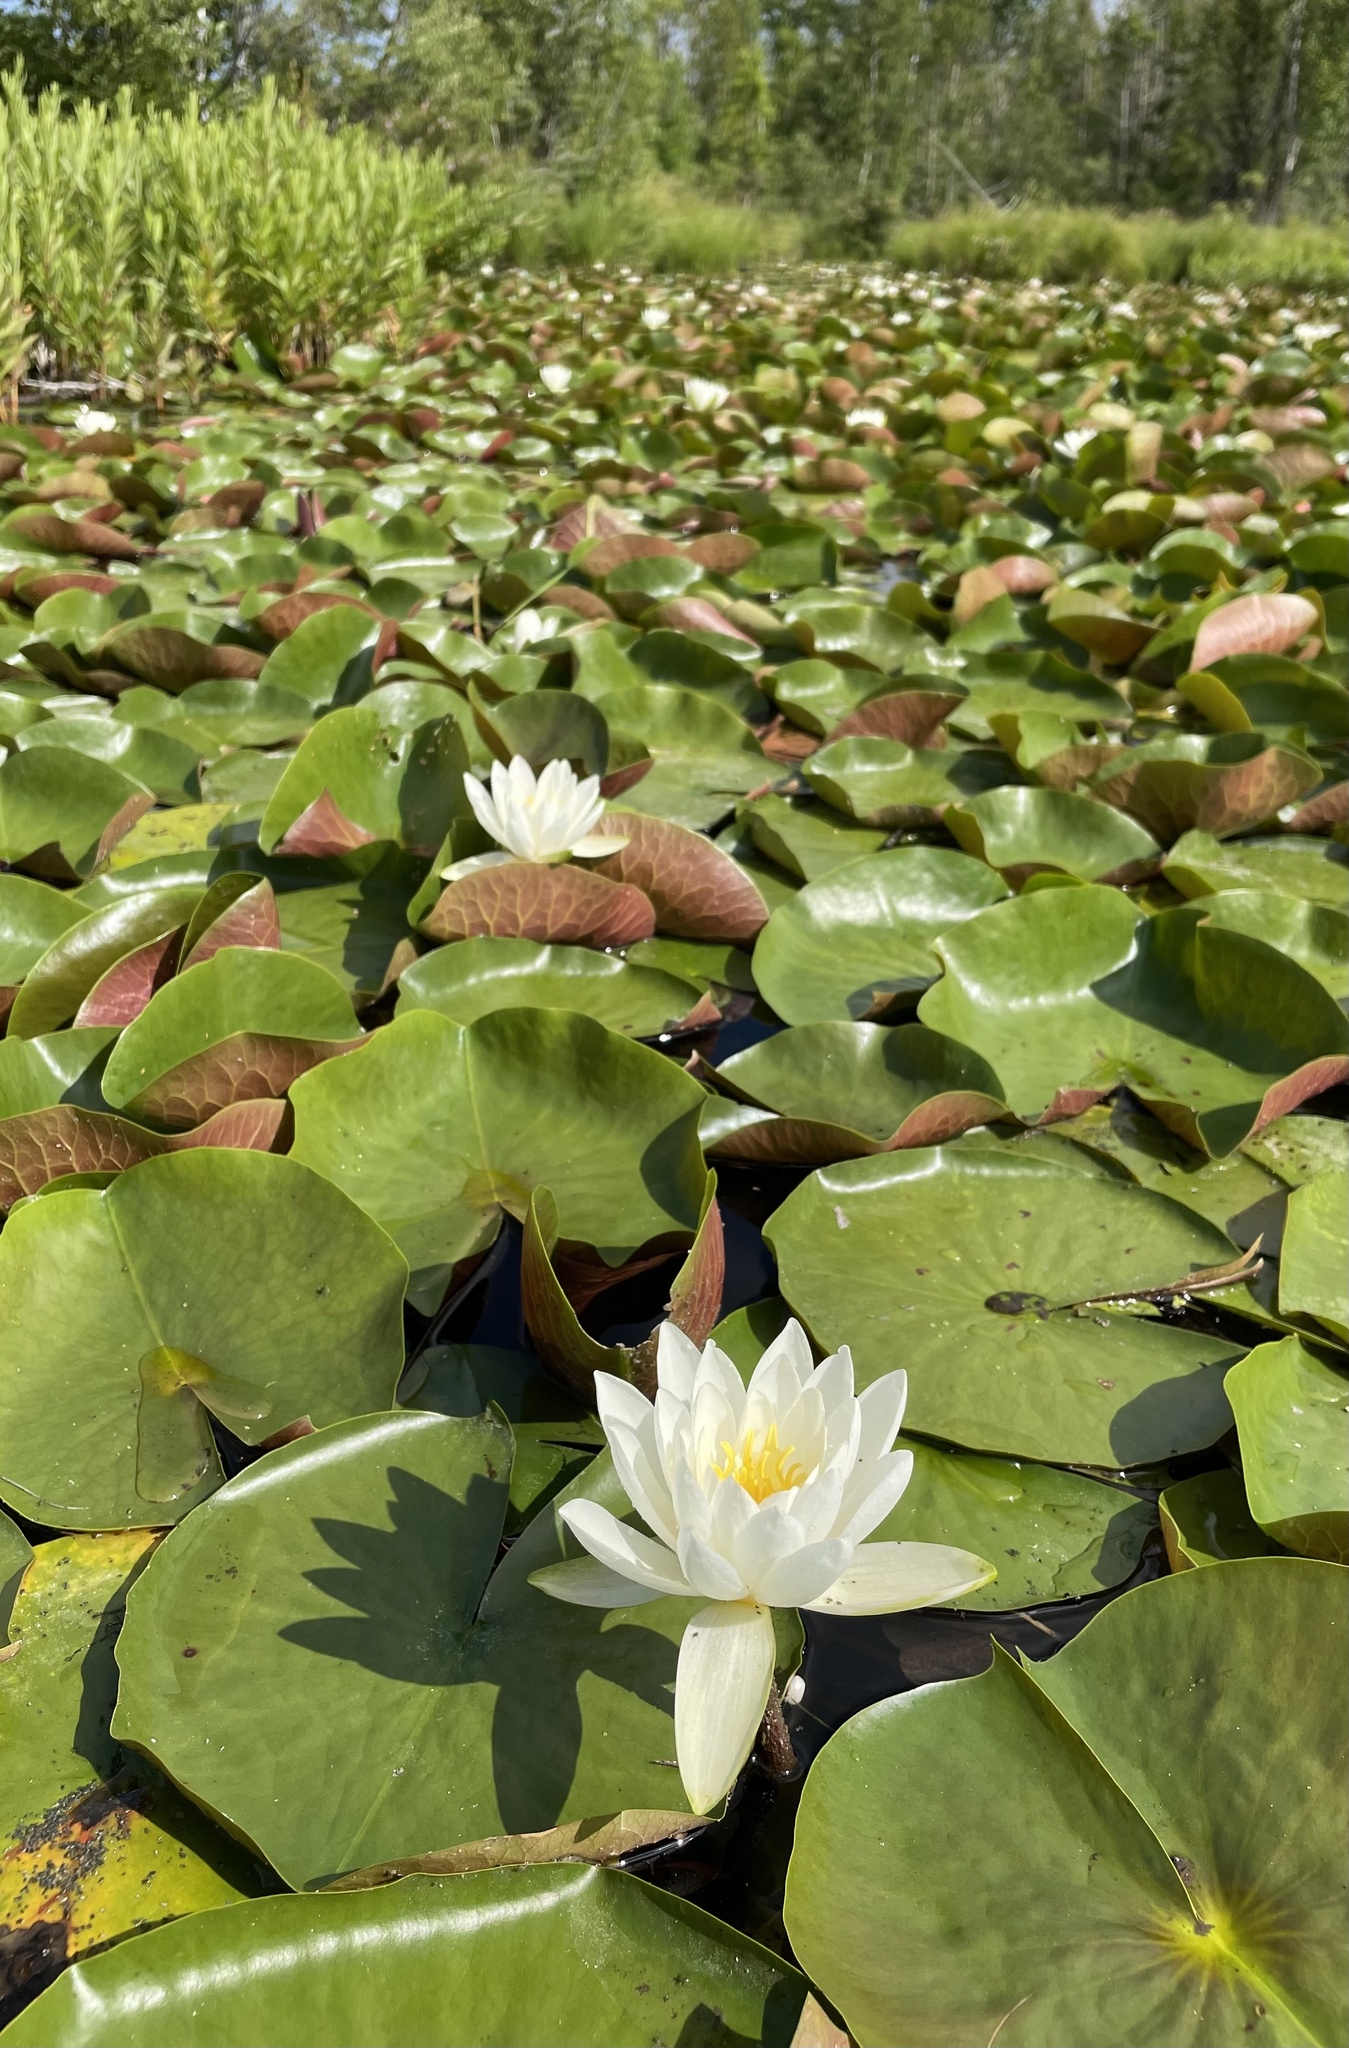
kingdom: Plantae
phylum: Tracheophyta
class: Magnoliopsida
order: Nymphaeales
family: Nymphaeaceae
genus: Nymphaea
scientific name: Nymphaea odorata
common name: Fragrant water-lily
